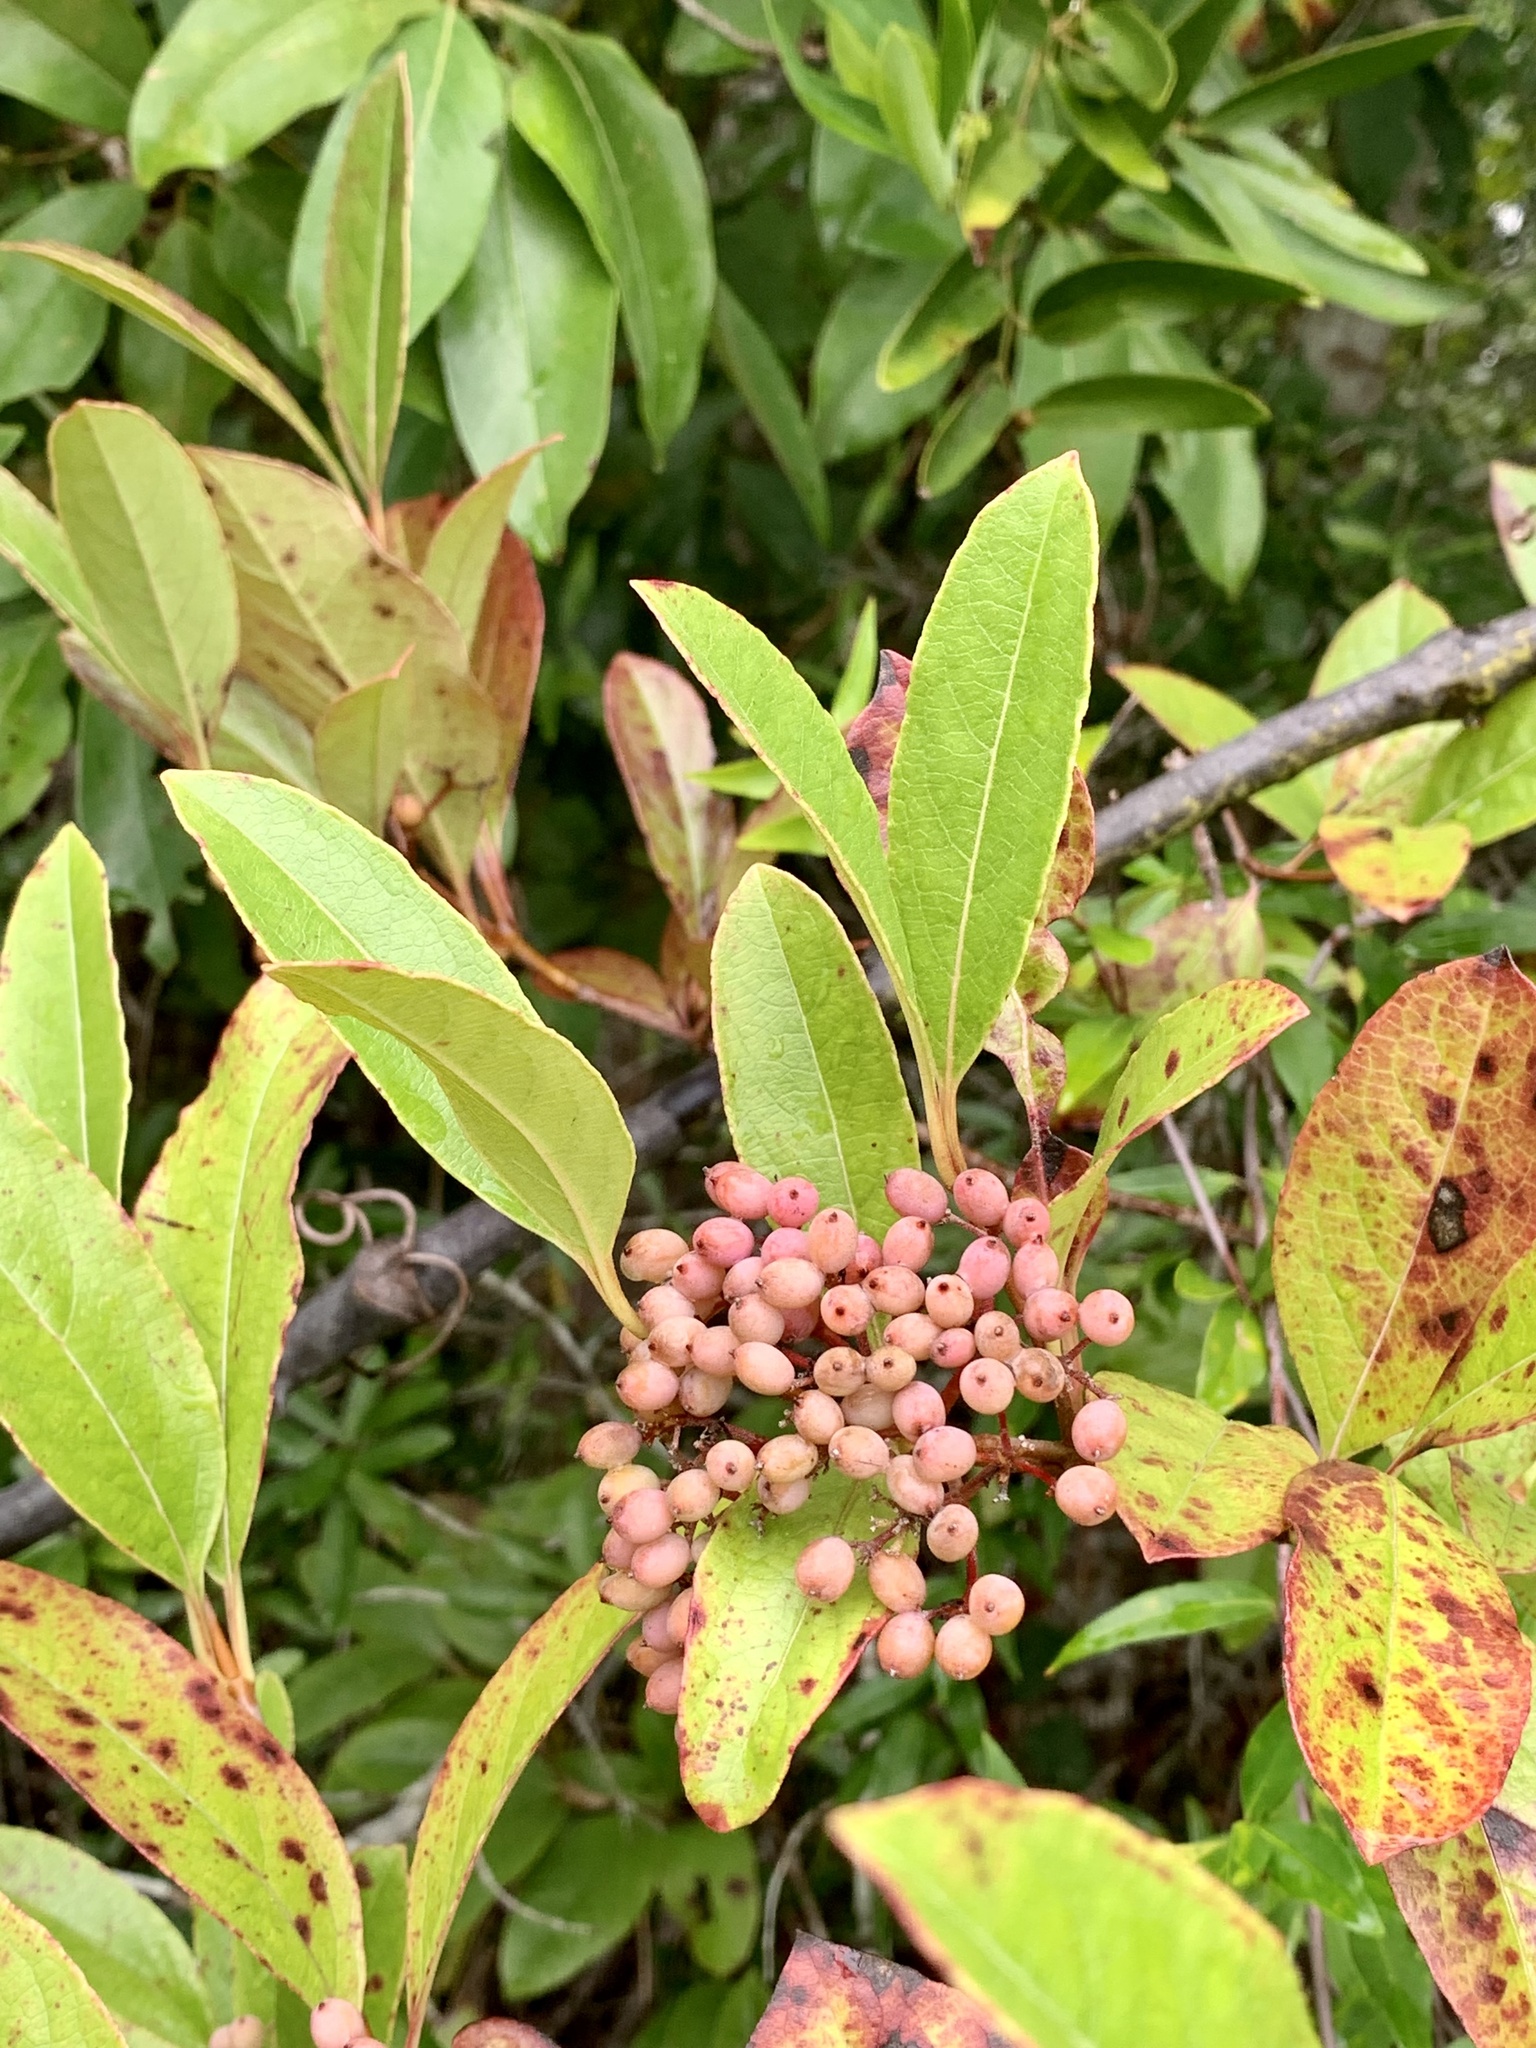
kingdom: Plantae
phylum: Tracheophyta
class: Magnoliopsida
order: Dipsacales
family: Viburnaceae
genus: Viburnum
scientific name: Viburnum cassinoides
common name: Swamp haw
